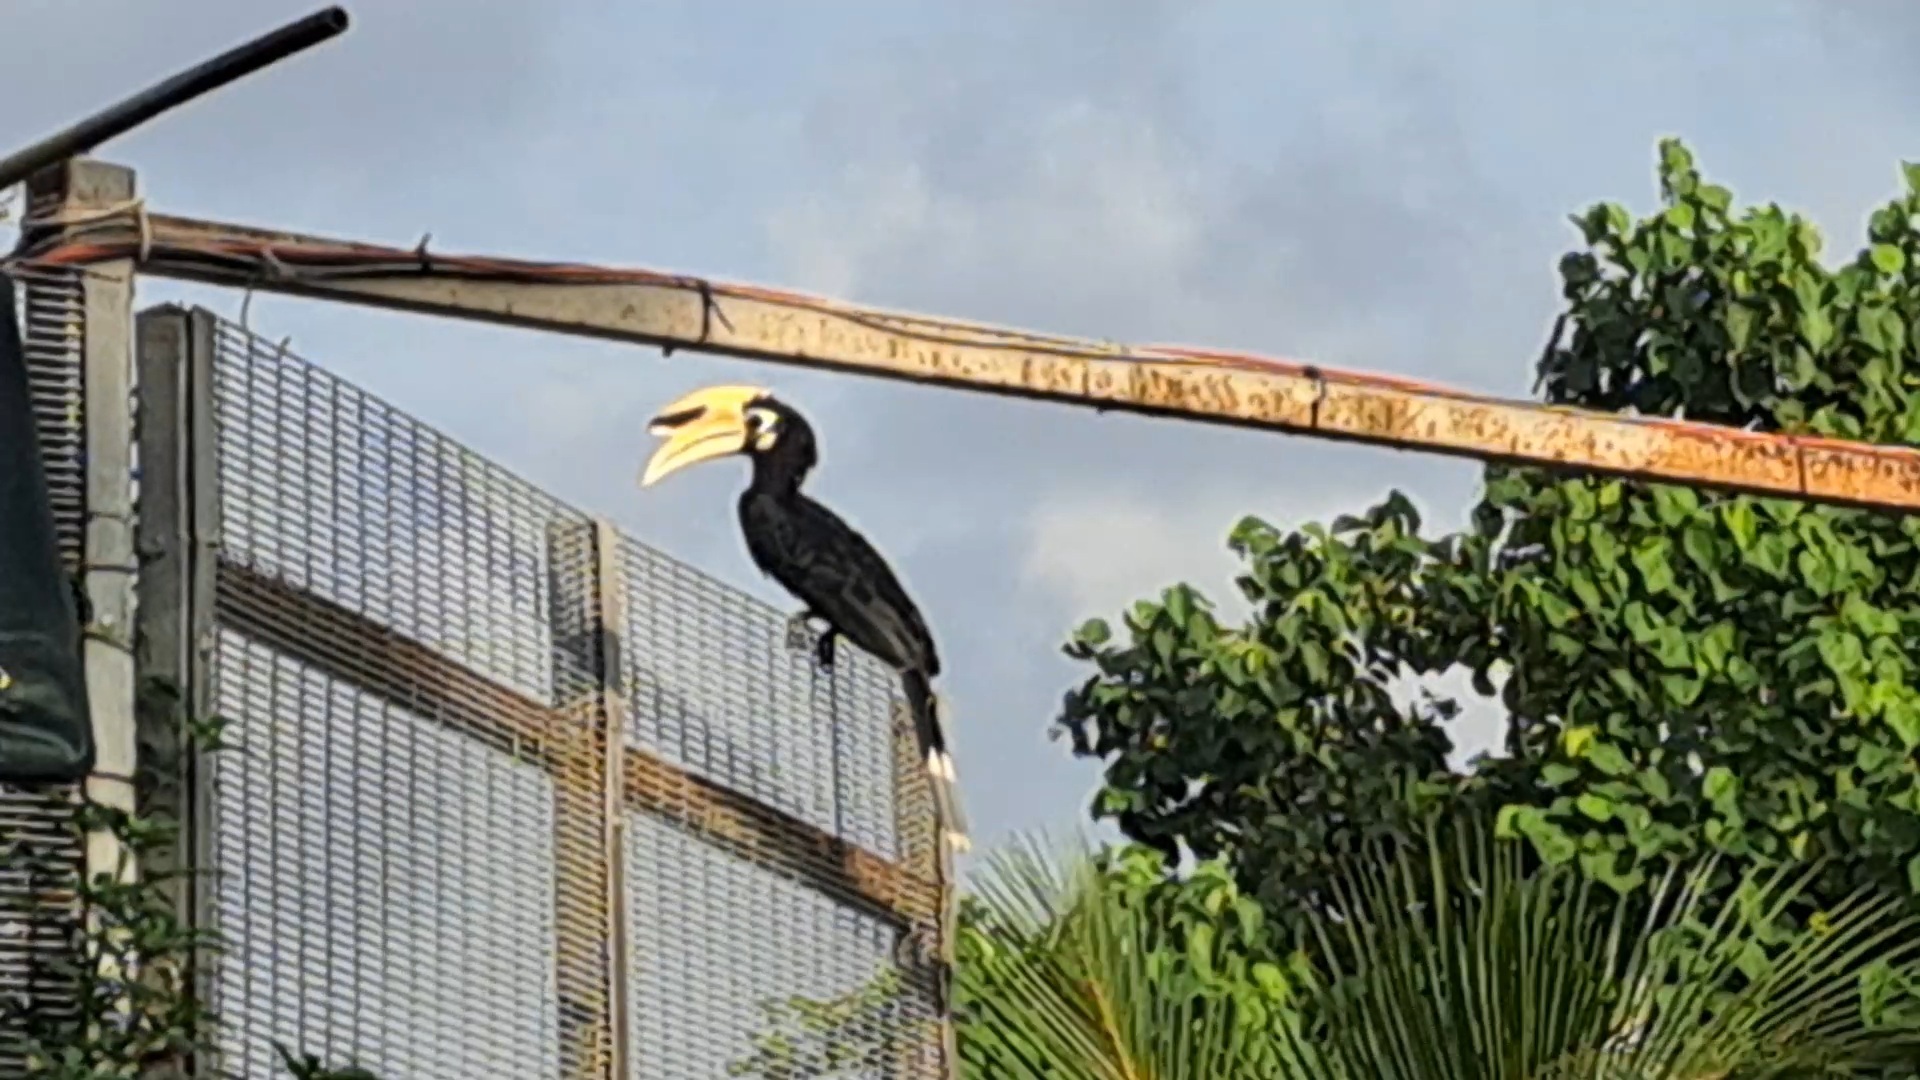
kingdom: Animalia
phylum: Chordata
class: Aves
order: Bucerotiformes
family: Bucerotidae
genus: Anthracoceros
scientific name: Anthracoceros albirostris
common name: Oriental pied-hornbill
